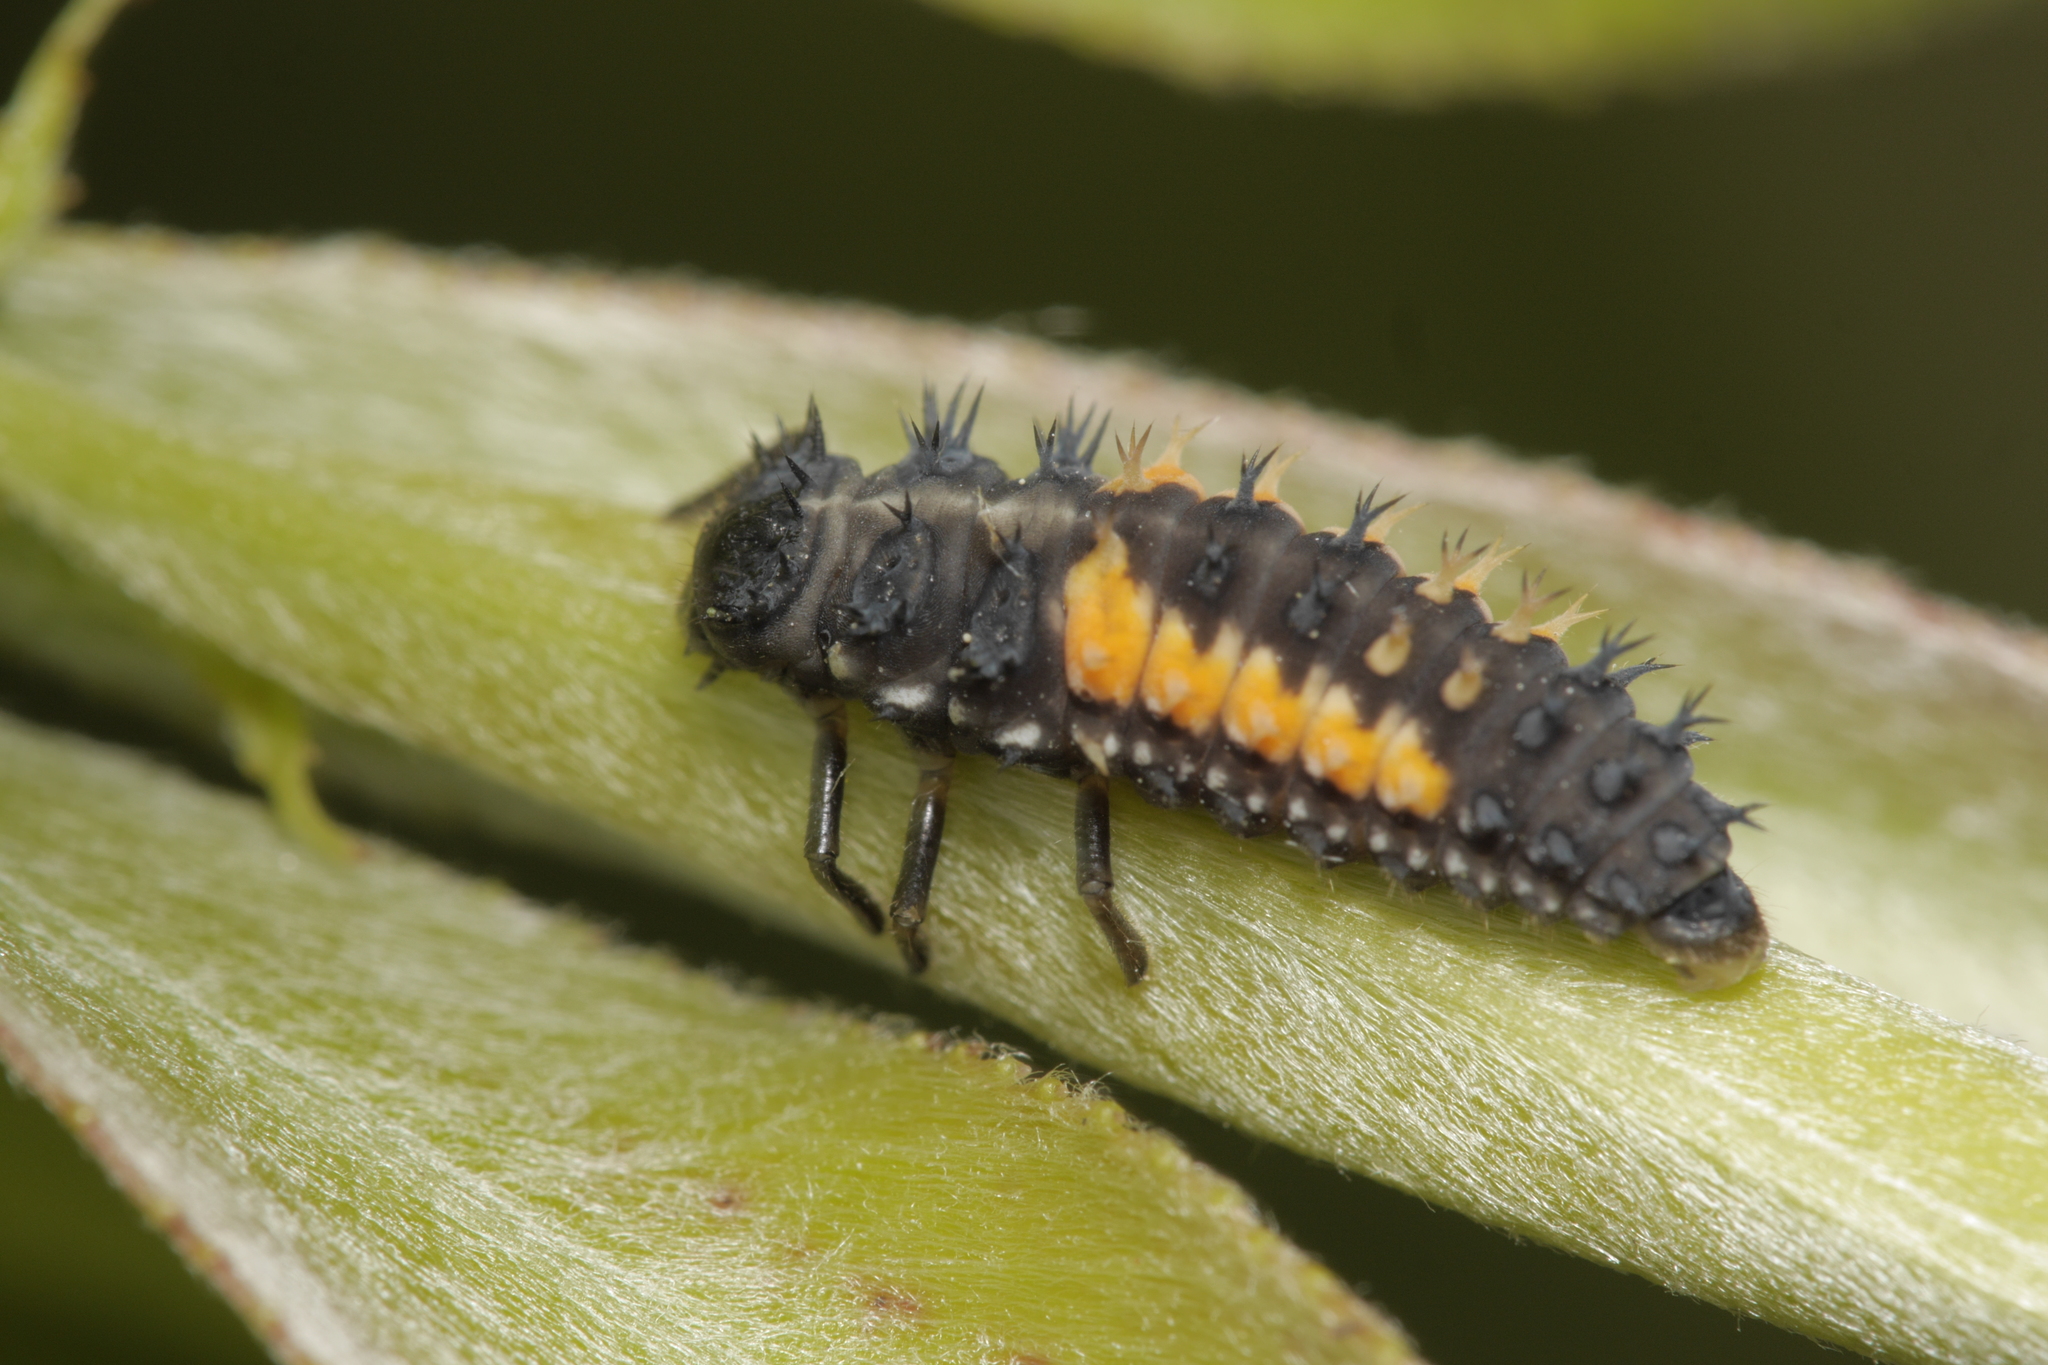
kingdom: Animalia
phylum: Arthropoda
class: Insecta
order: Coleoptera
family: Coccinellidae
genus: Harmonia
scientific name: Harmonia axyridis
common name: Harlequin ladybird
